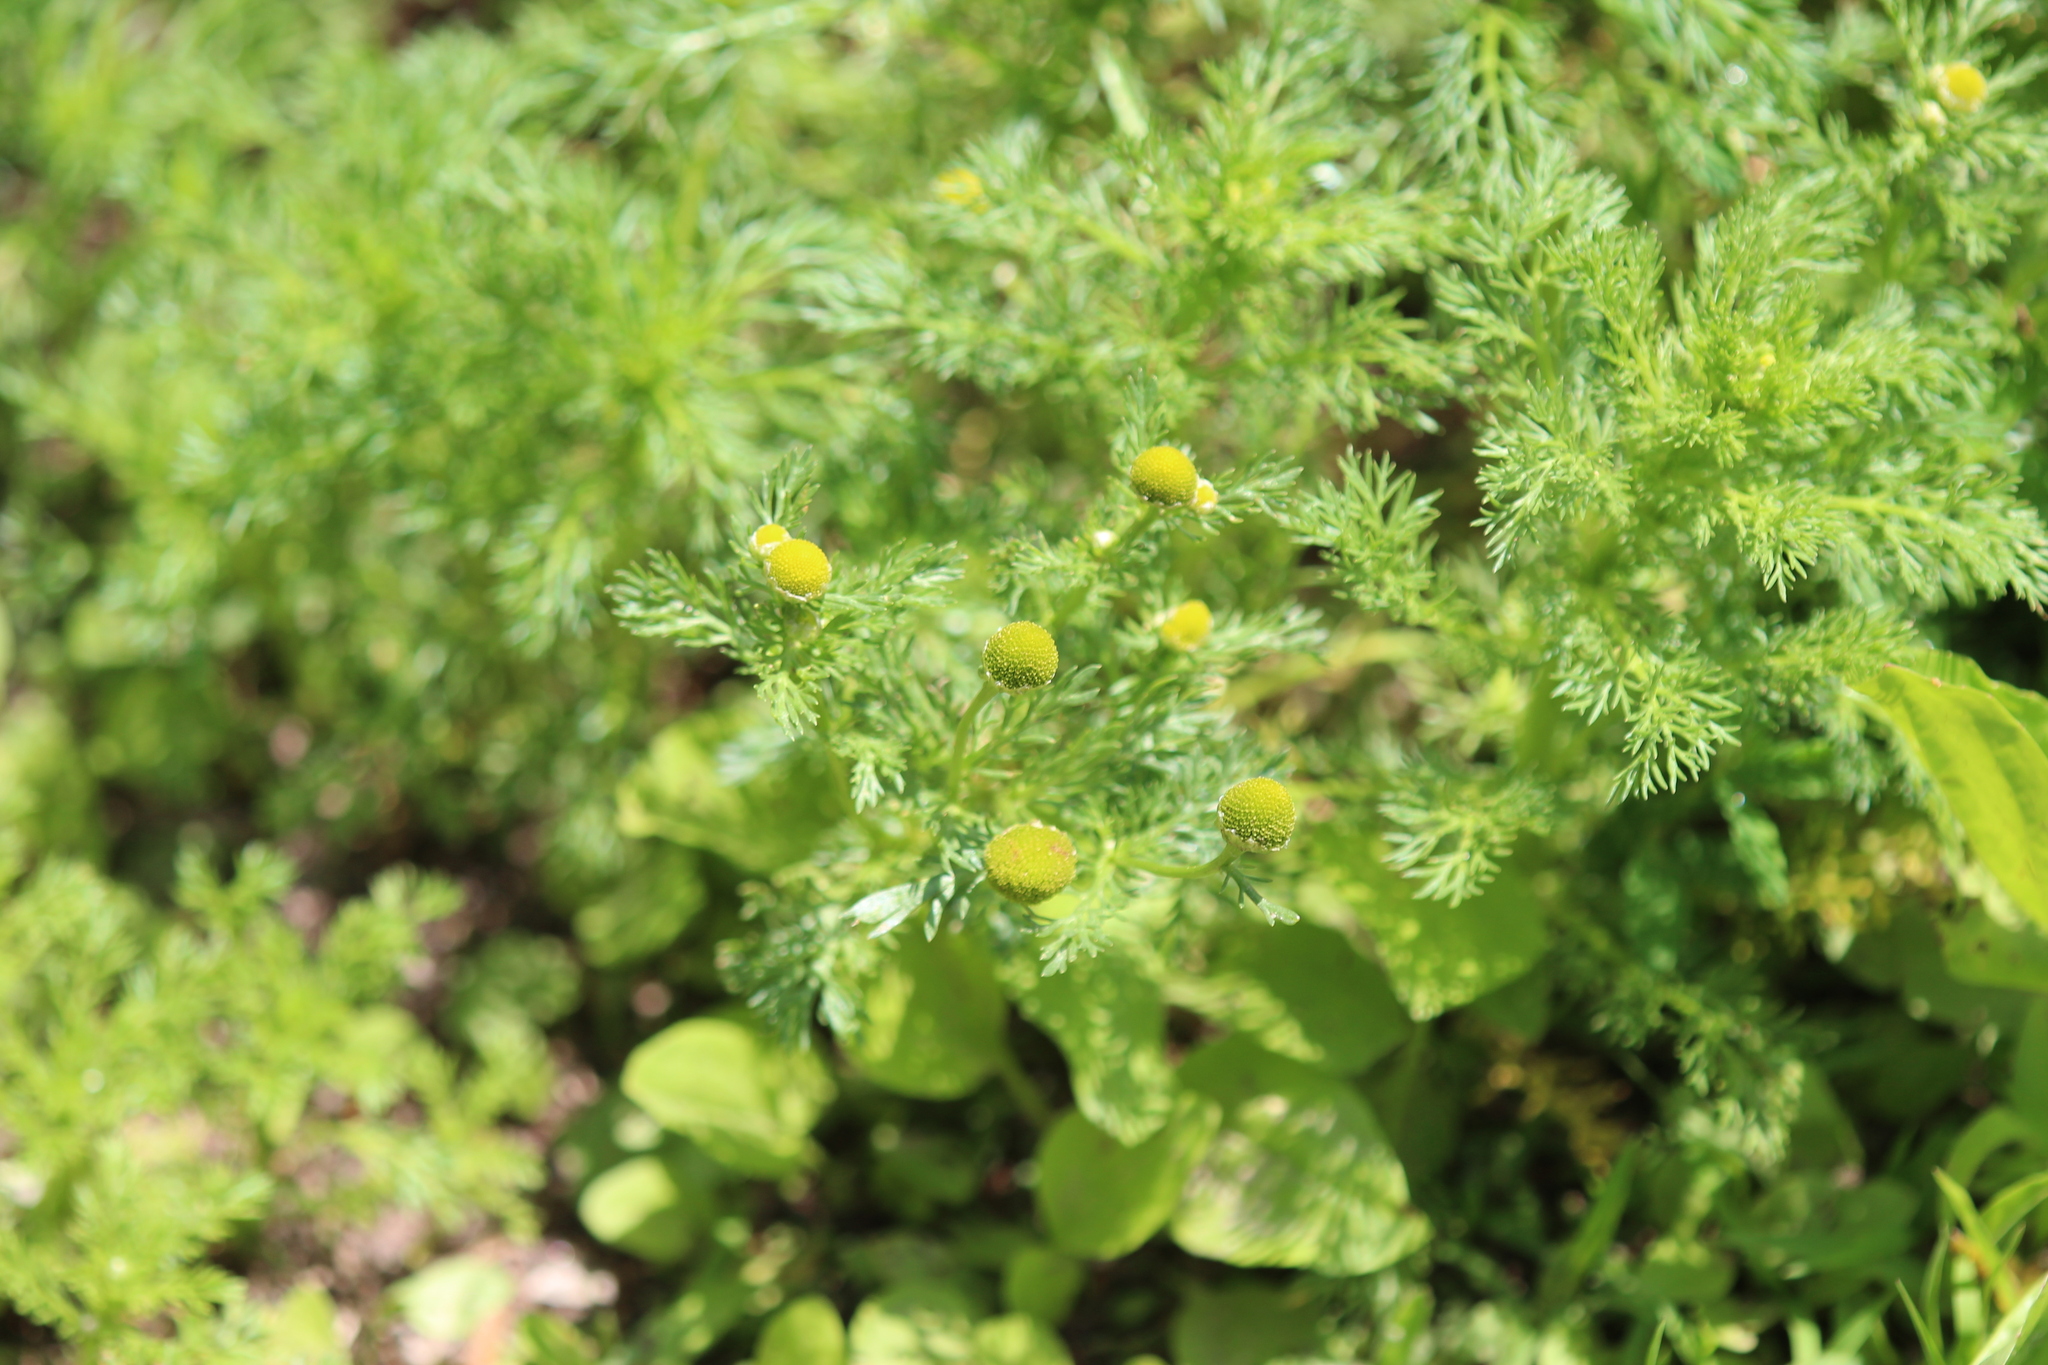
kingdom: Plantae
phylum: Tracheophyta
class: Magnoliopsida
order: Asterales
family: Asteraceae
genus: Matricaria
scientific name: Matricaria discoidea
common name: Disc mayweed
